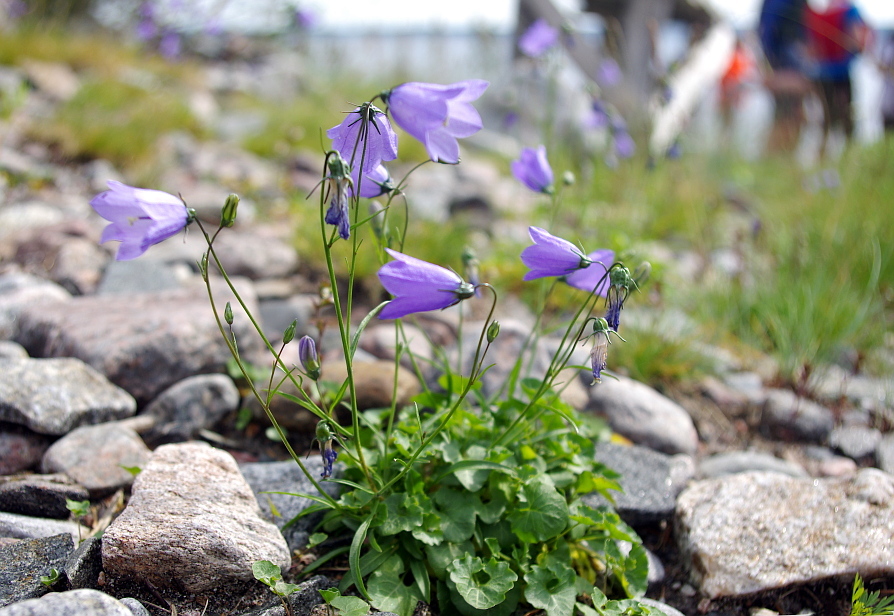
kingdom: Plantae
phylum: Tracheophyta
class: Magnoliopsida
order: Asterales
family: Campanulaceae
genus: Campanula
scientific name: Campanula rotundifolia
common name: Harebell
